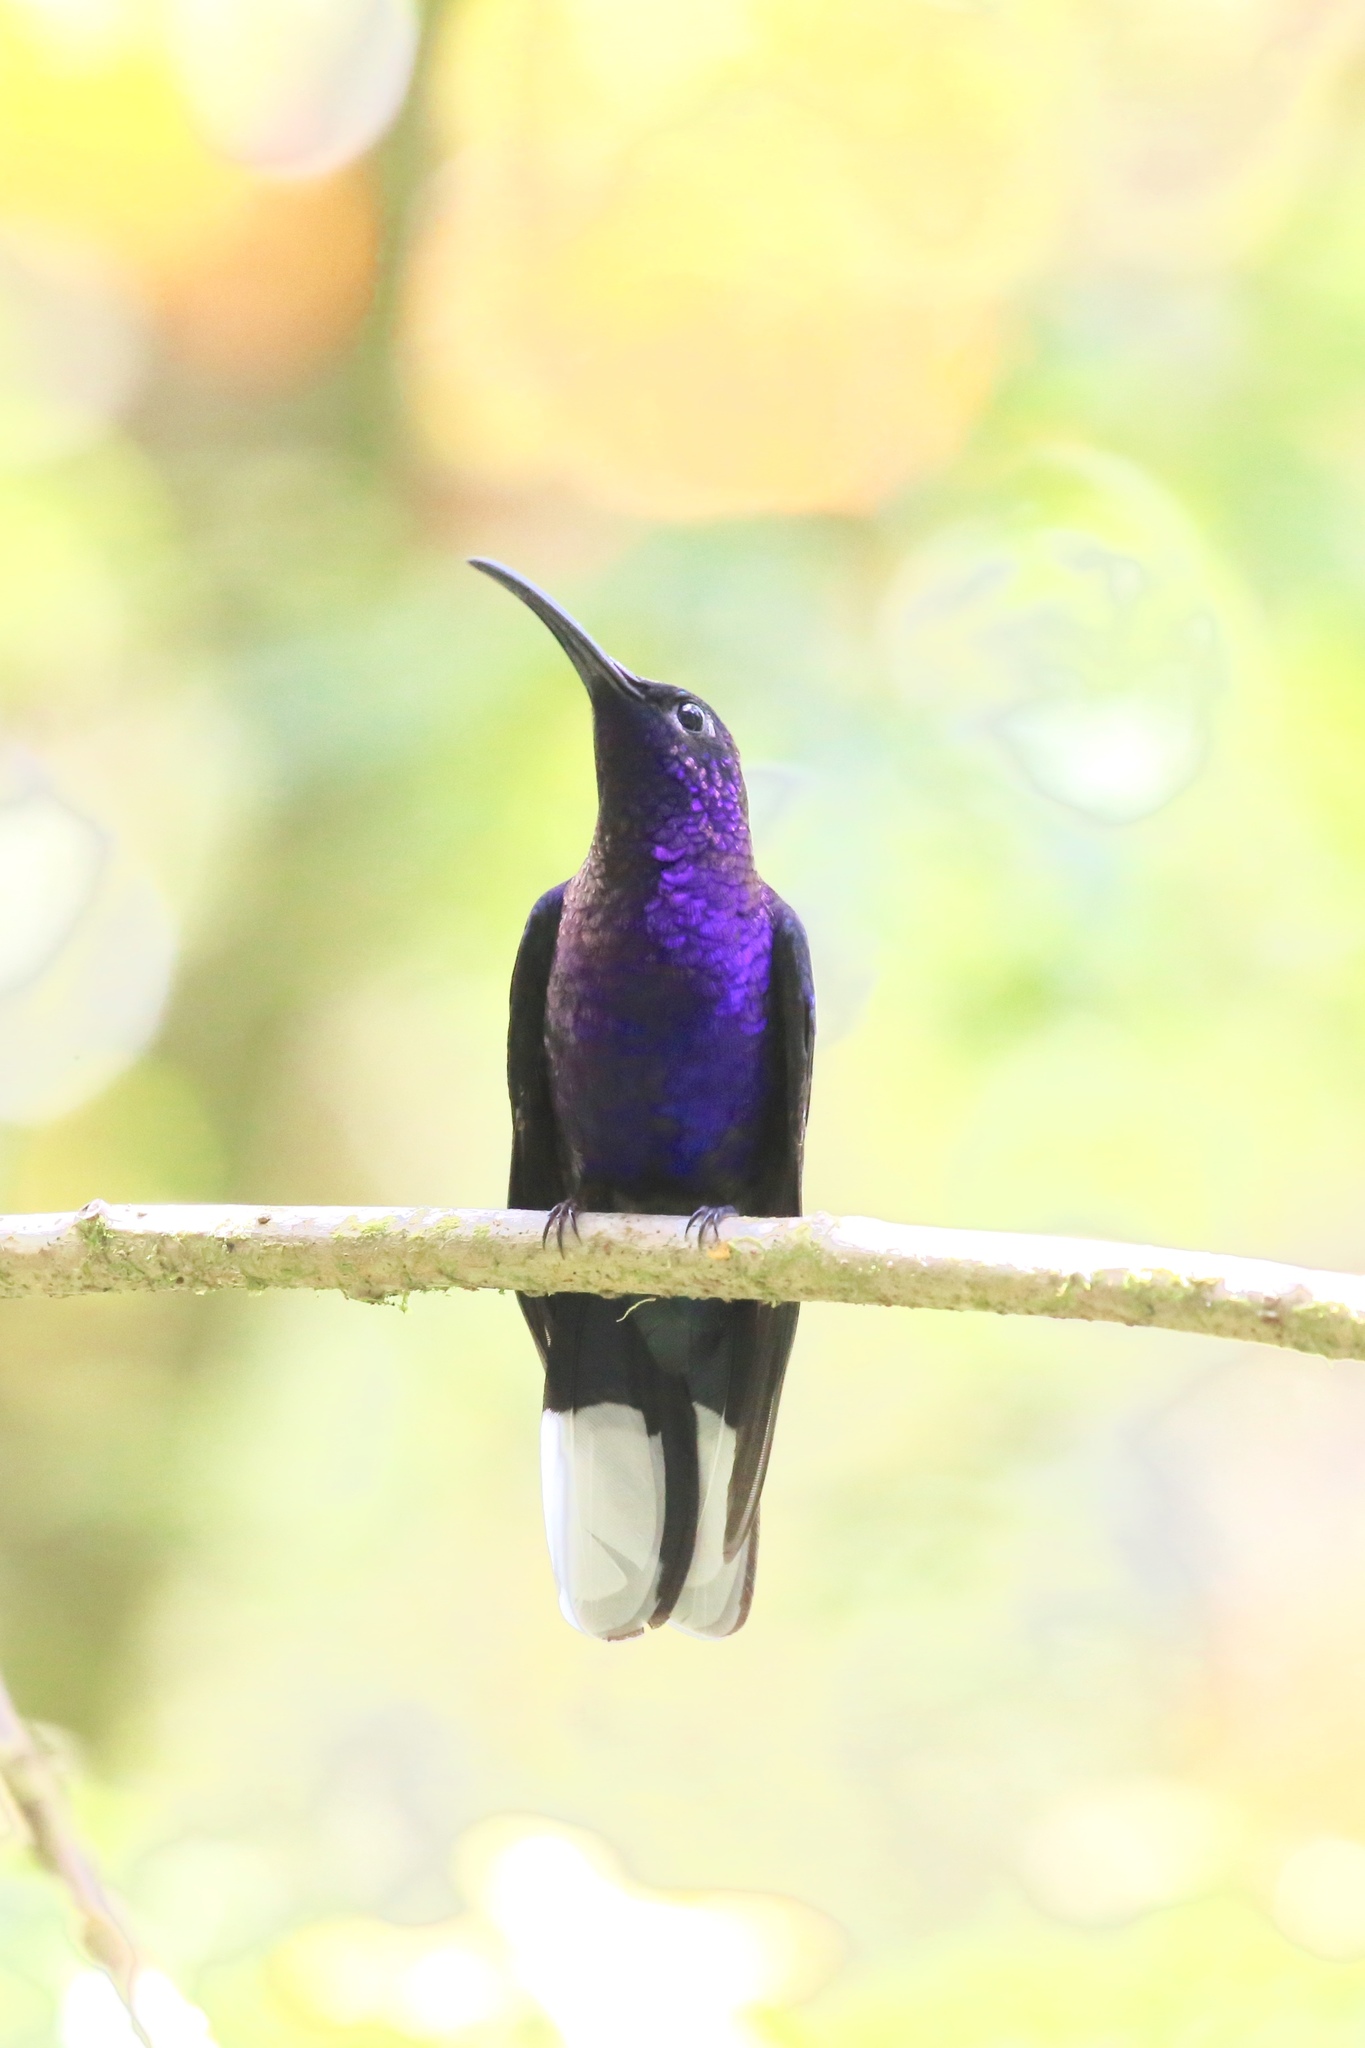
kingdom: Animalia
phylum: Chordata
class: Aves
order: Apodiformes
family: Trochilidae
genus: Campylopterus
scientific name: Campylopterus hemileucurus
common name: Violet sabrewing
